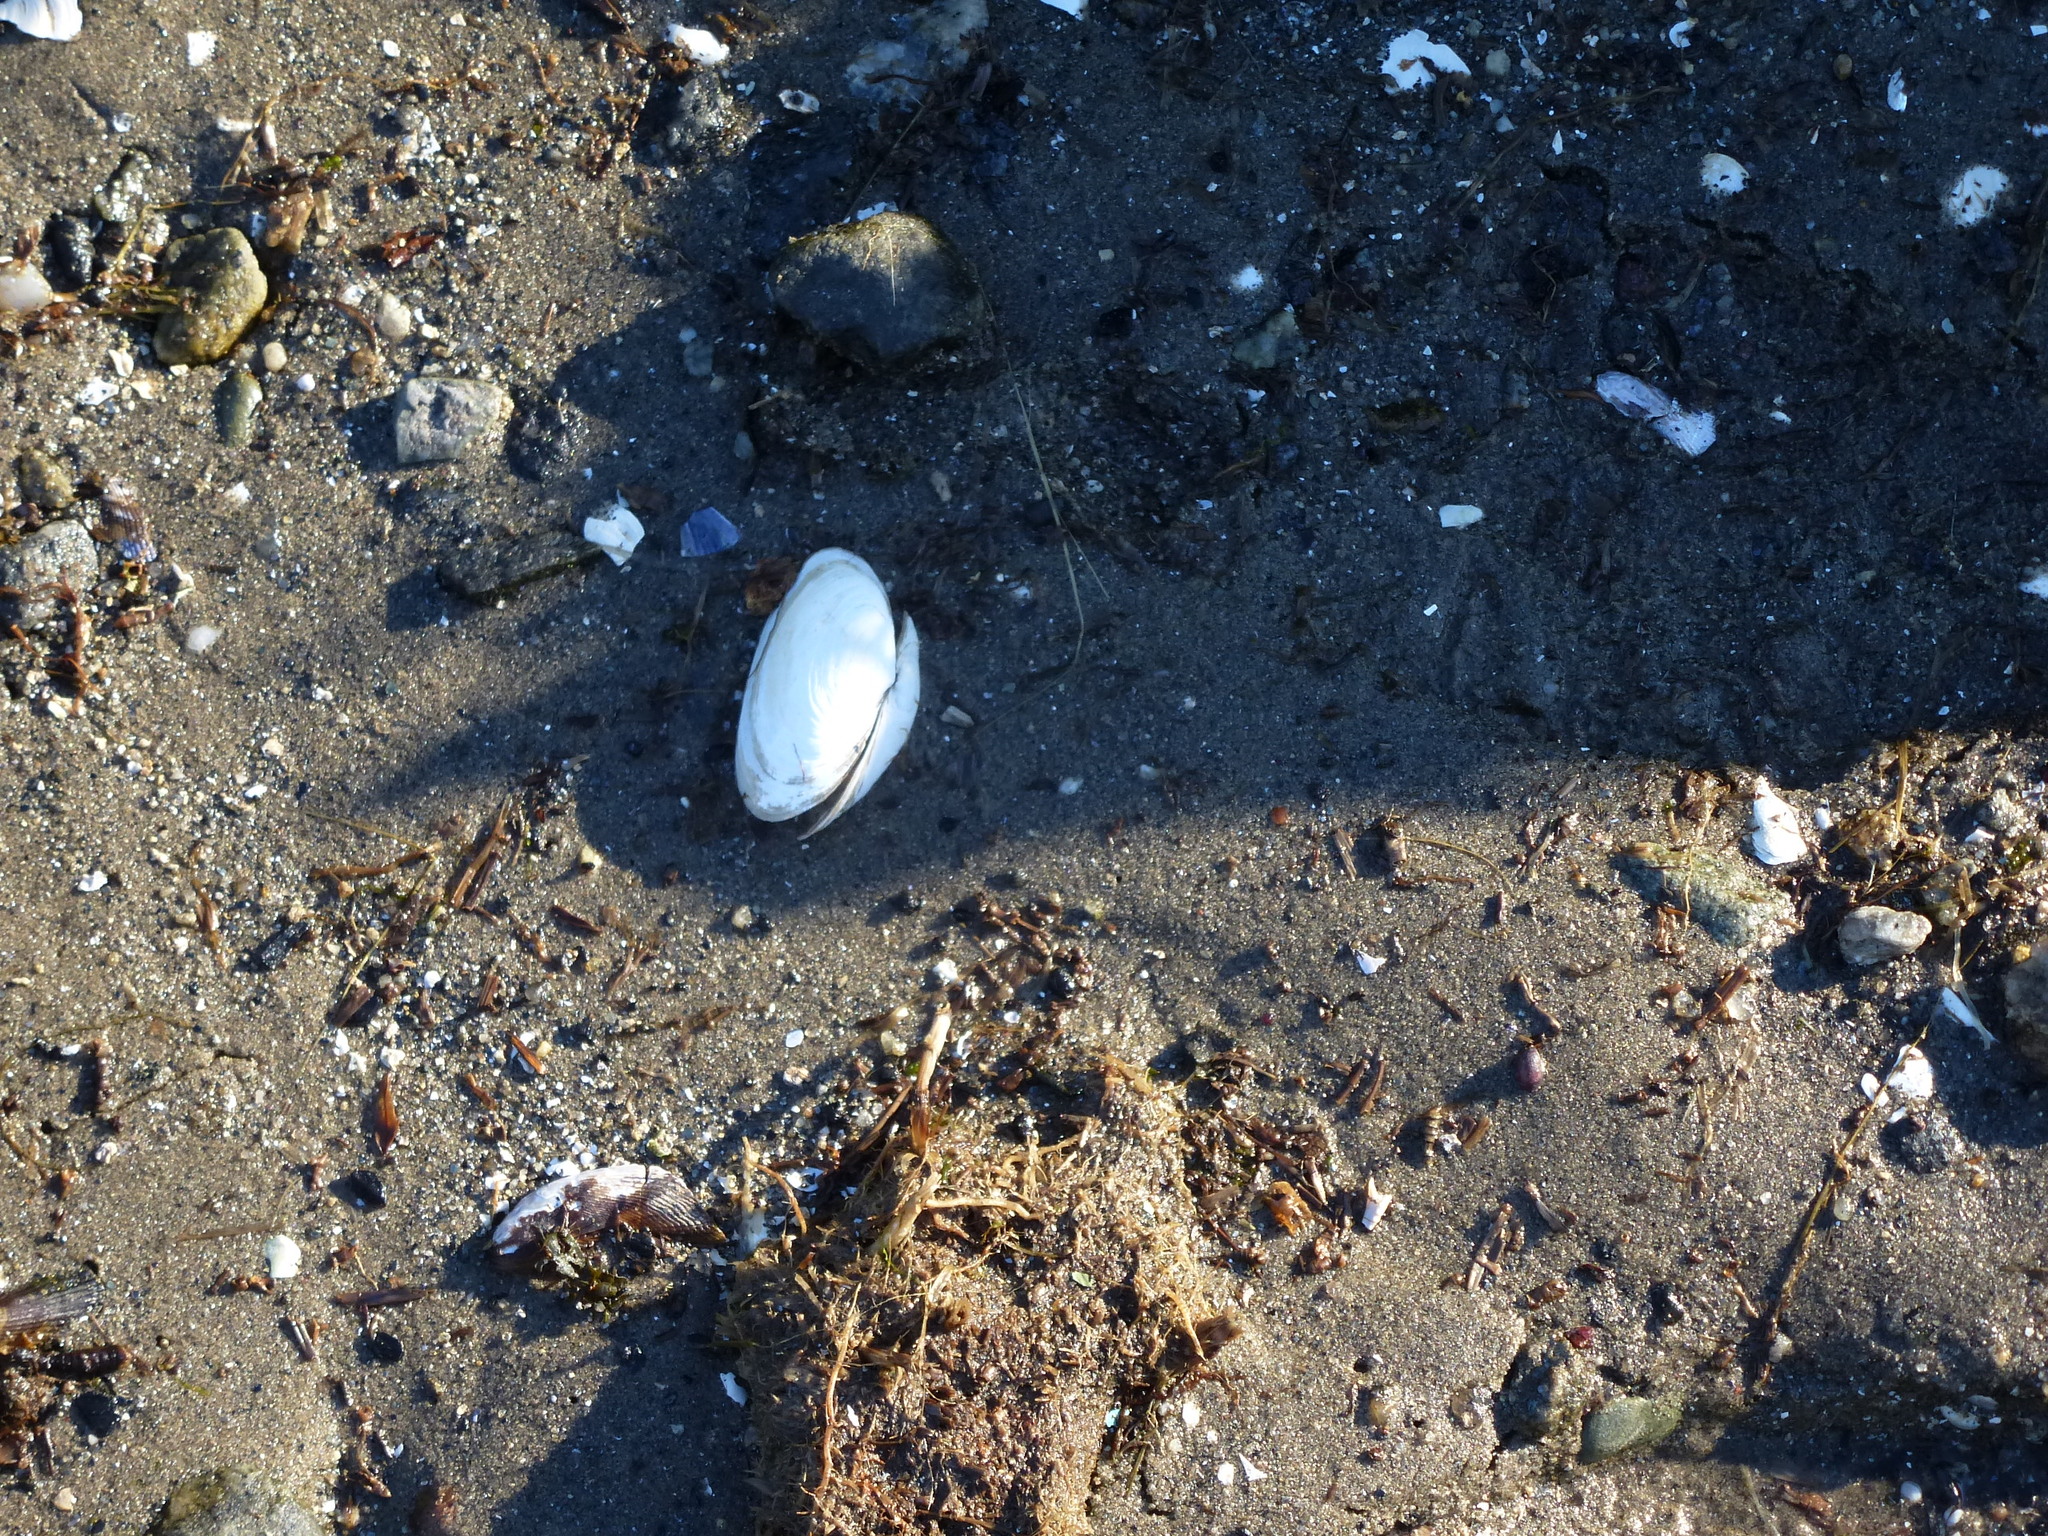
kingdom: Animalia
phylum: Mollusca
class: Bivalvia
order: Myida
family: Myidae
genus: Mya
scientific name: Mya arenaria
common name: Soft-shelled clam
